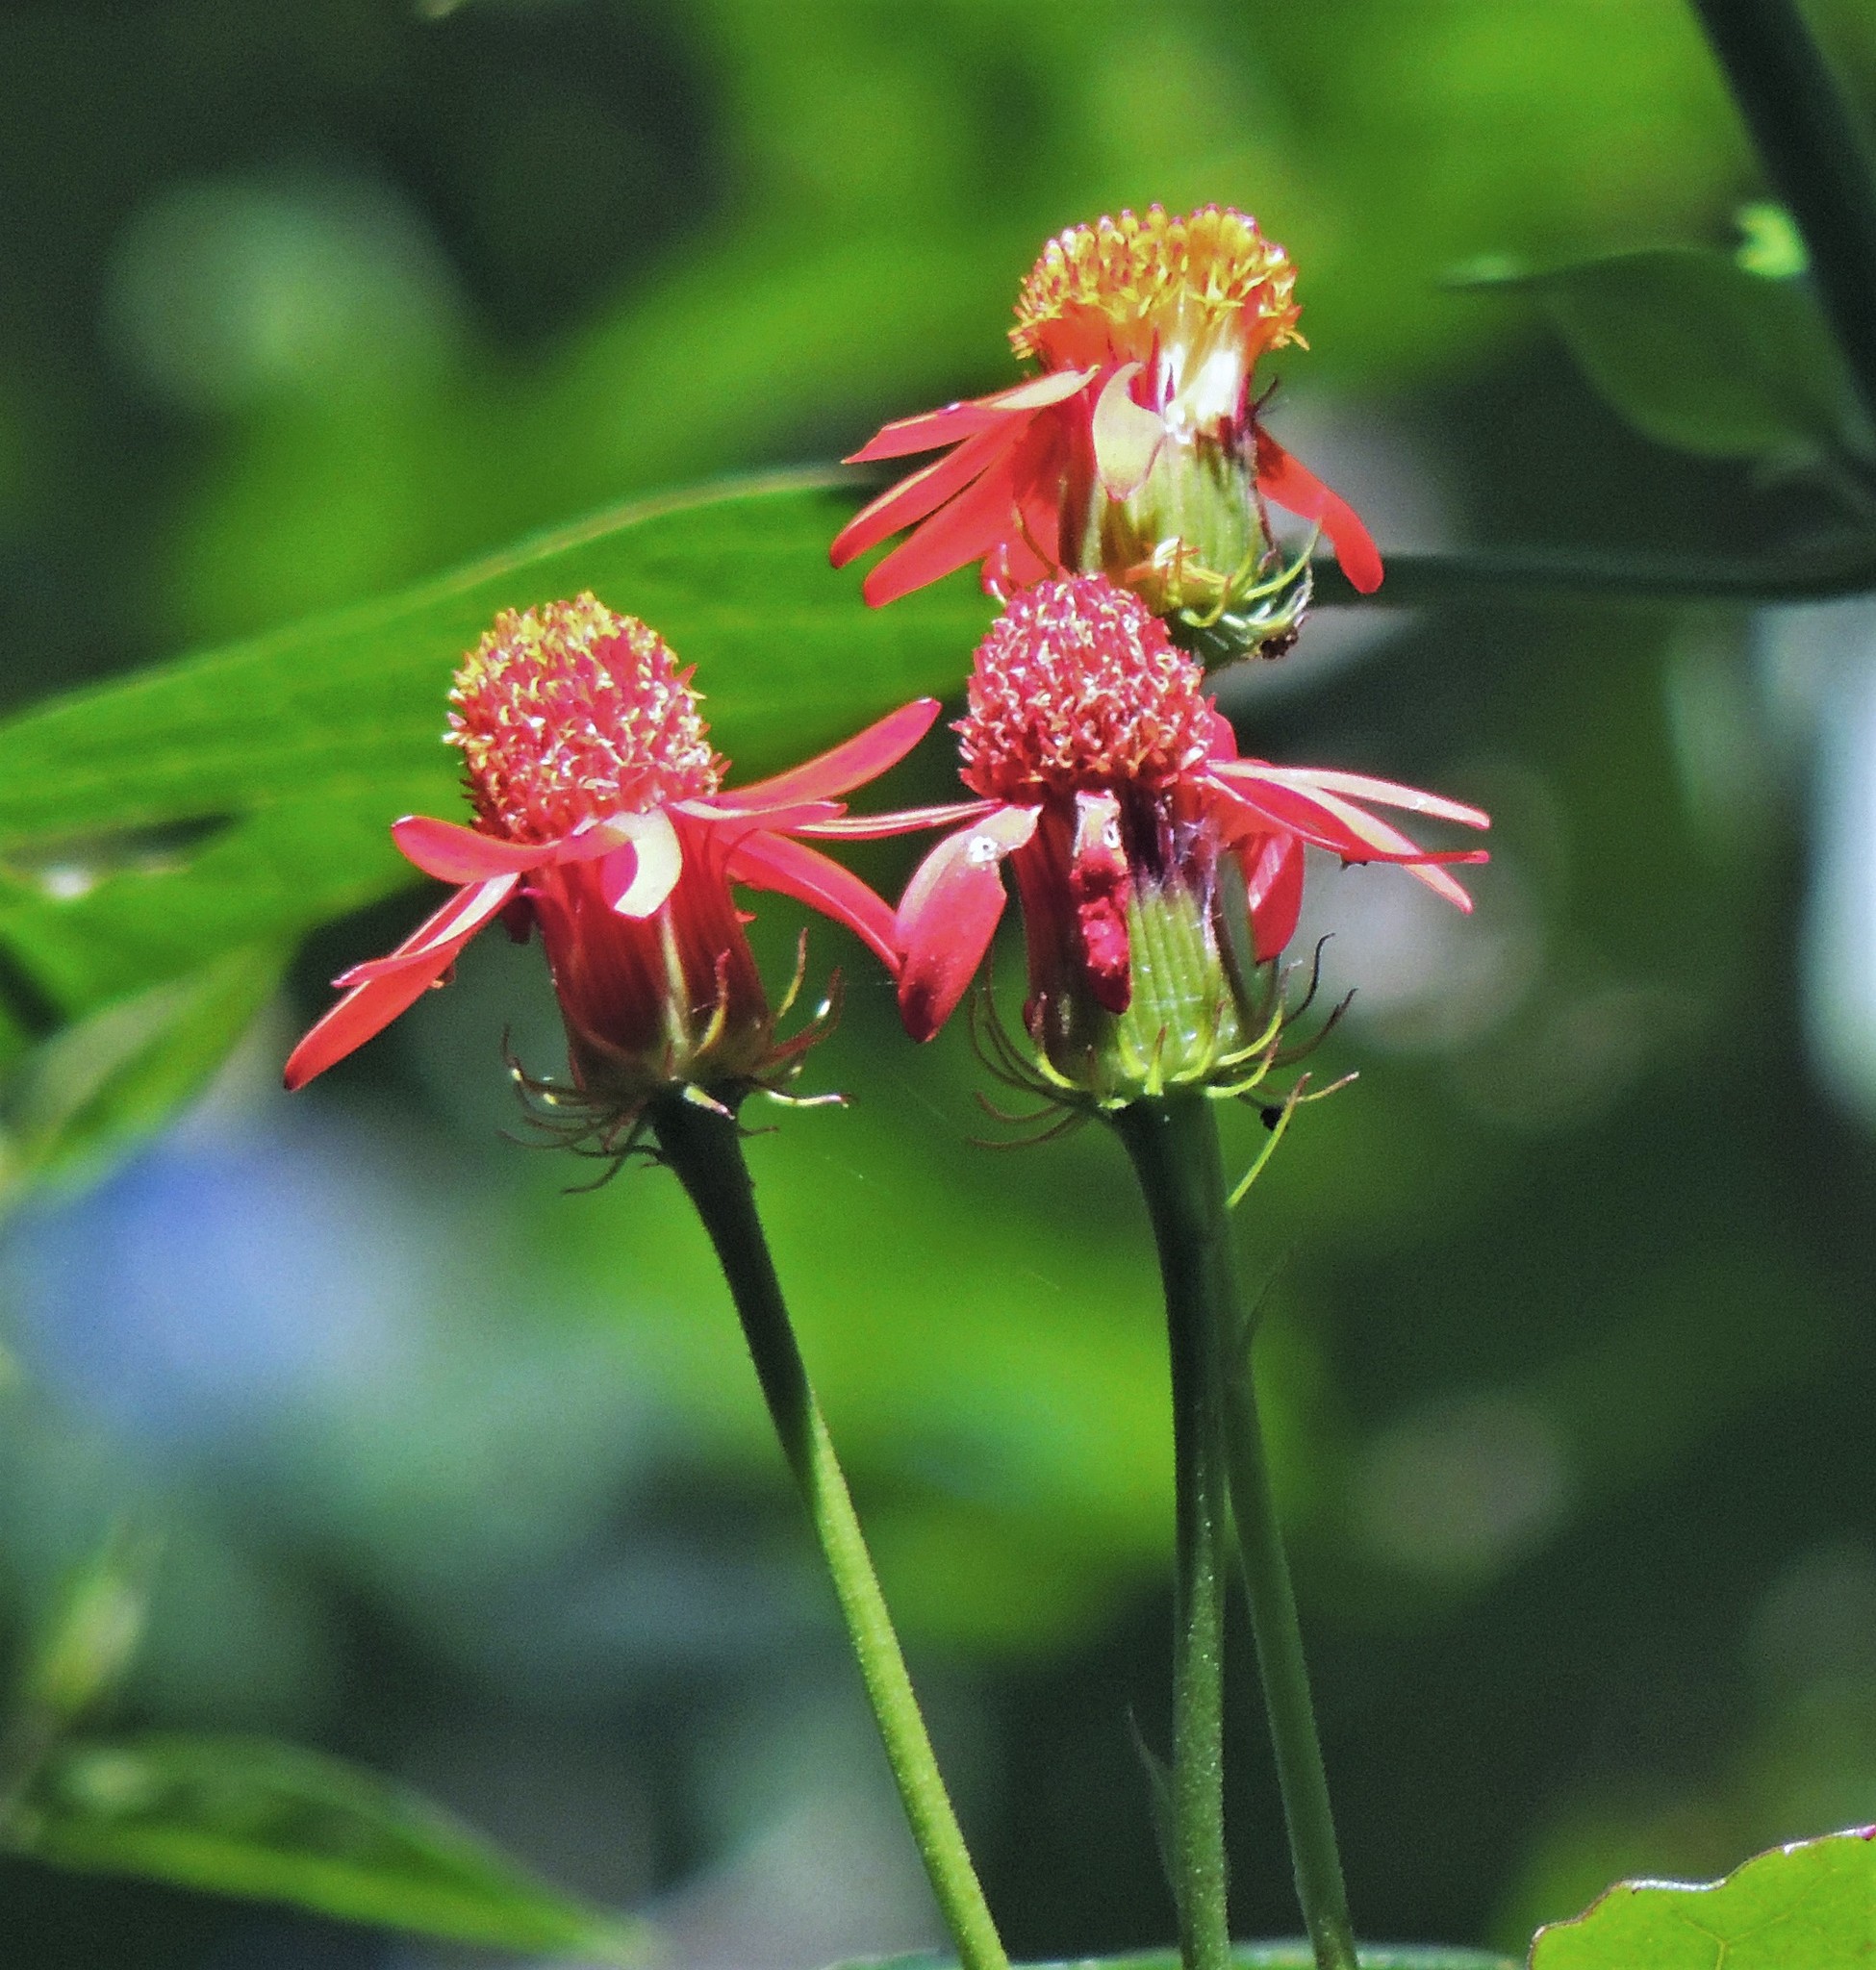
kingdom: Plantae
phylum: Tracheophyta
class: Magnoliopsida
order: Asterales
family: Asteraceae
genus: Pseudogynoxys
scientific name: Pseudogynoxys cumingii
